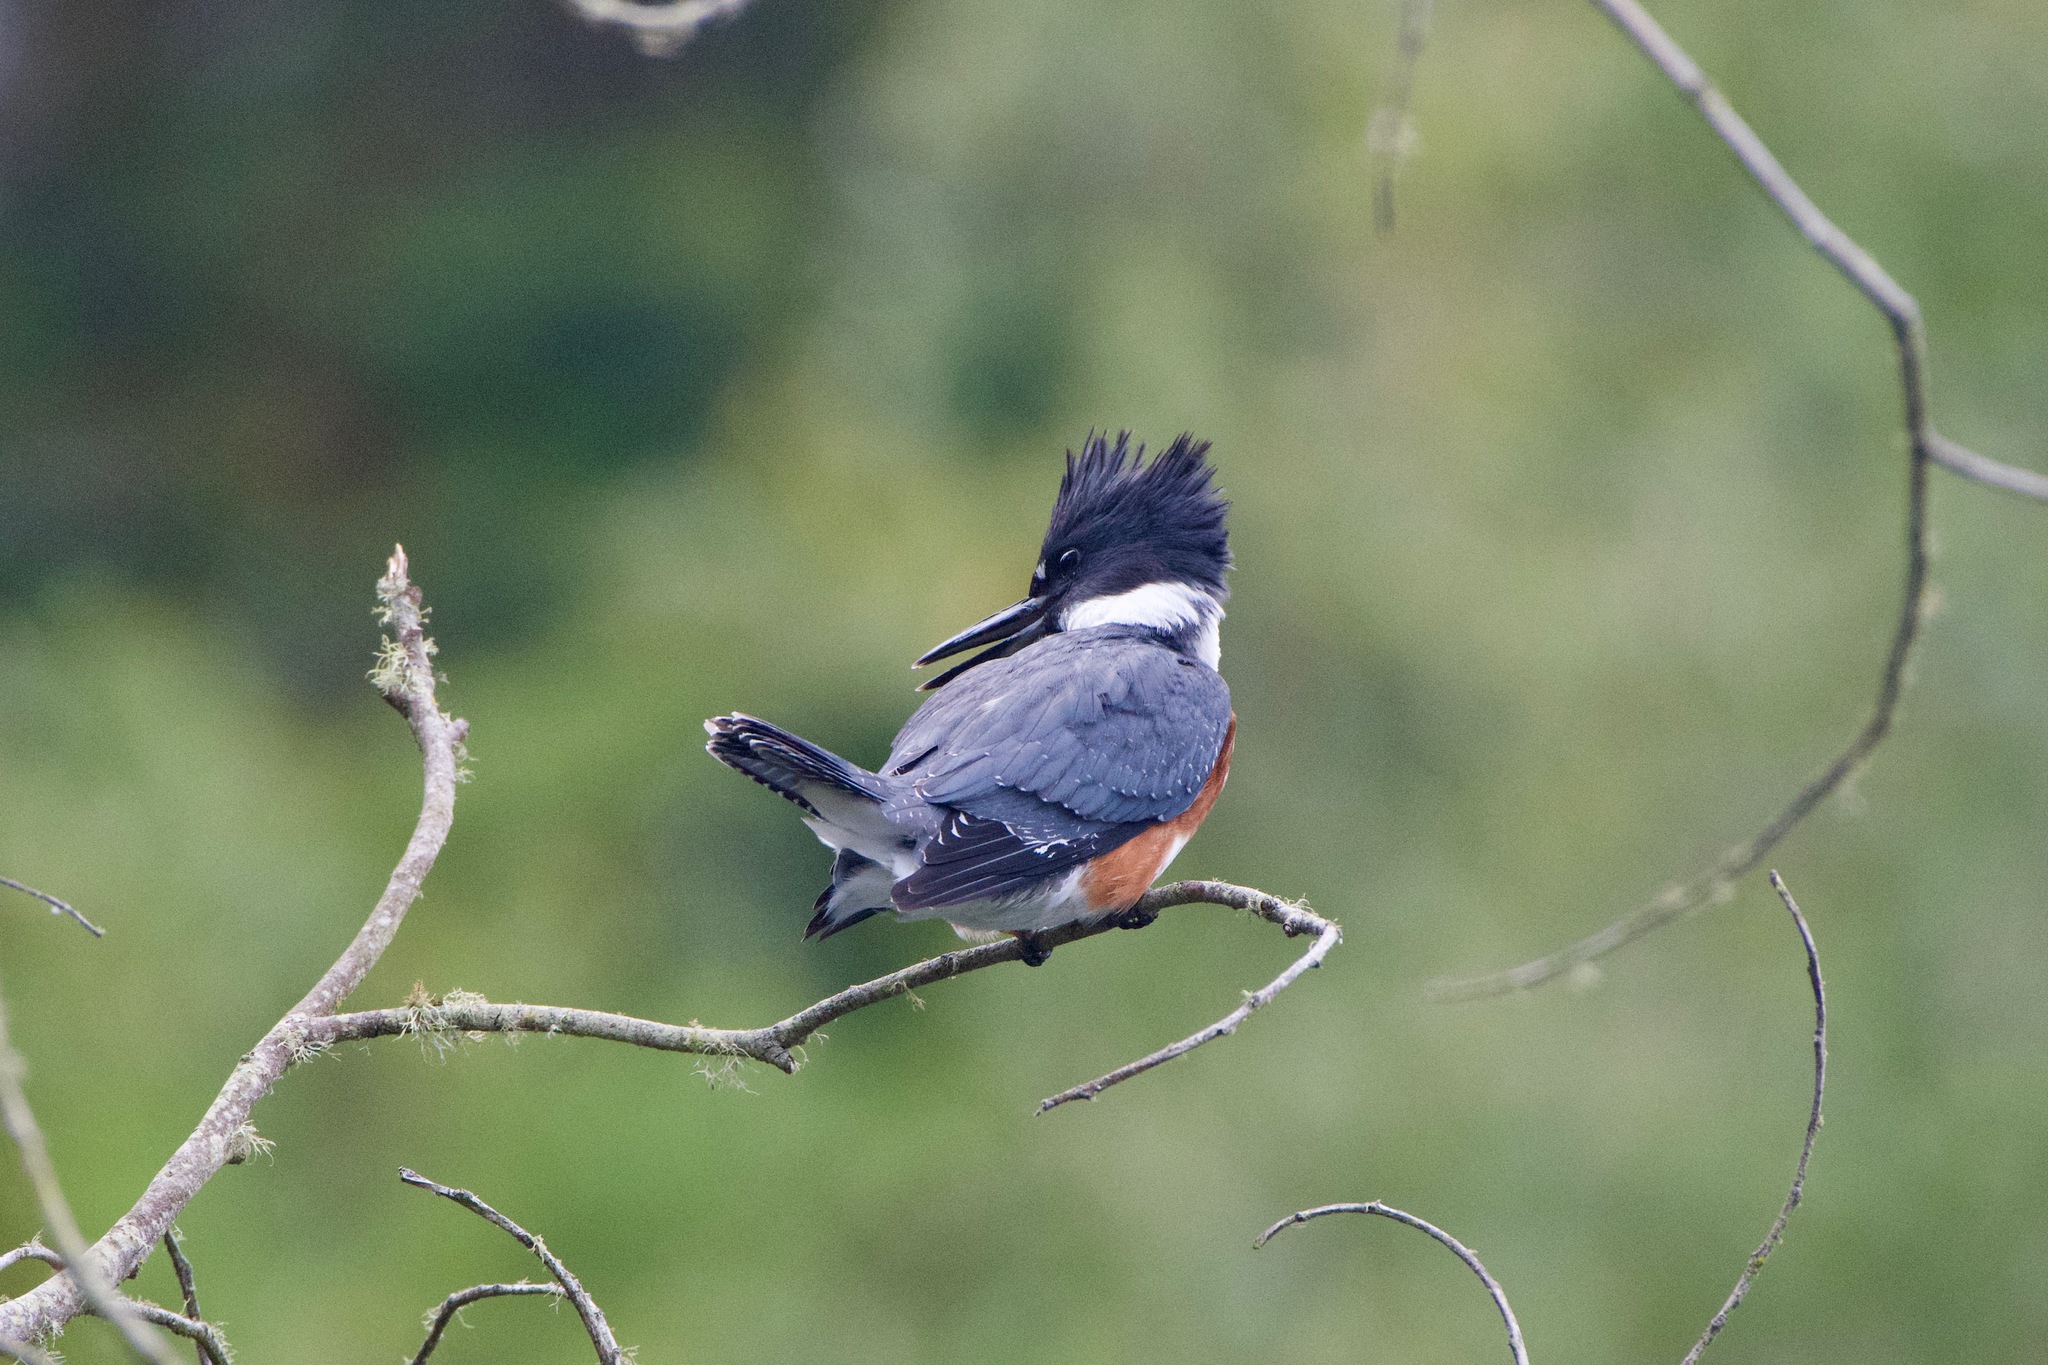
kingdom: Animalia
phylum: Chordata
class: Aves
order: Coraciiformes
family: Alcedinidae
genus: Megaceryle
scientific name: Megaceryle alcyon
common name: Belted kingfisher
